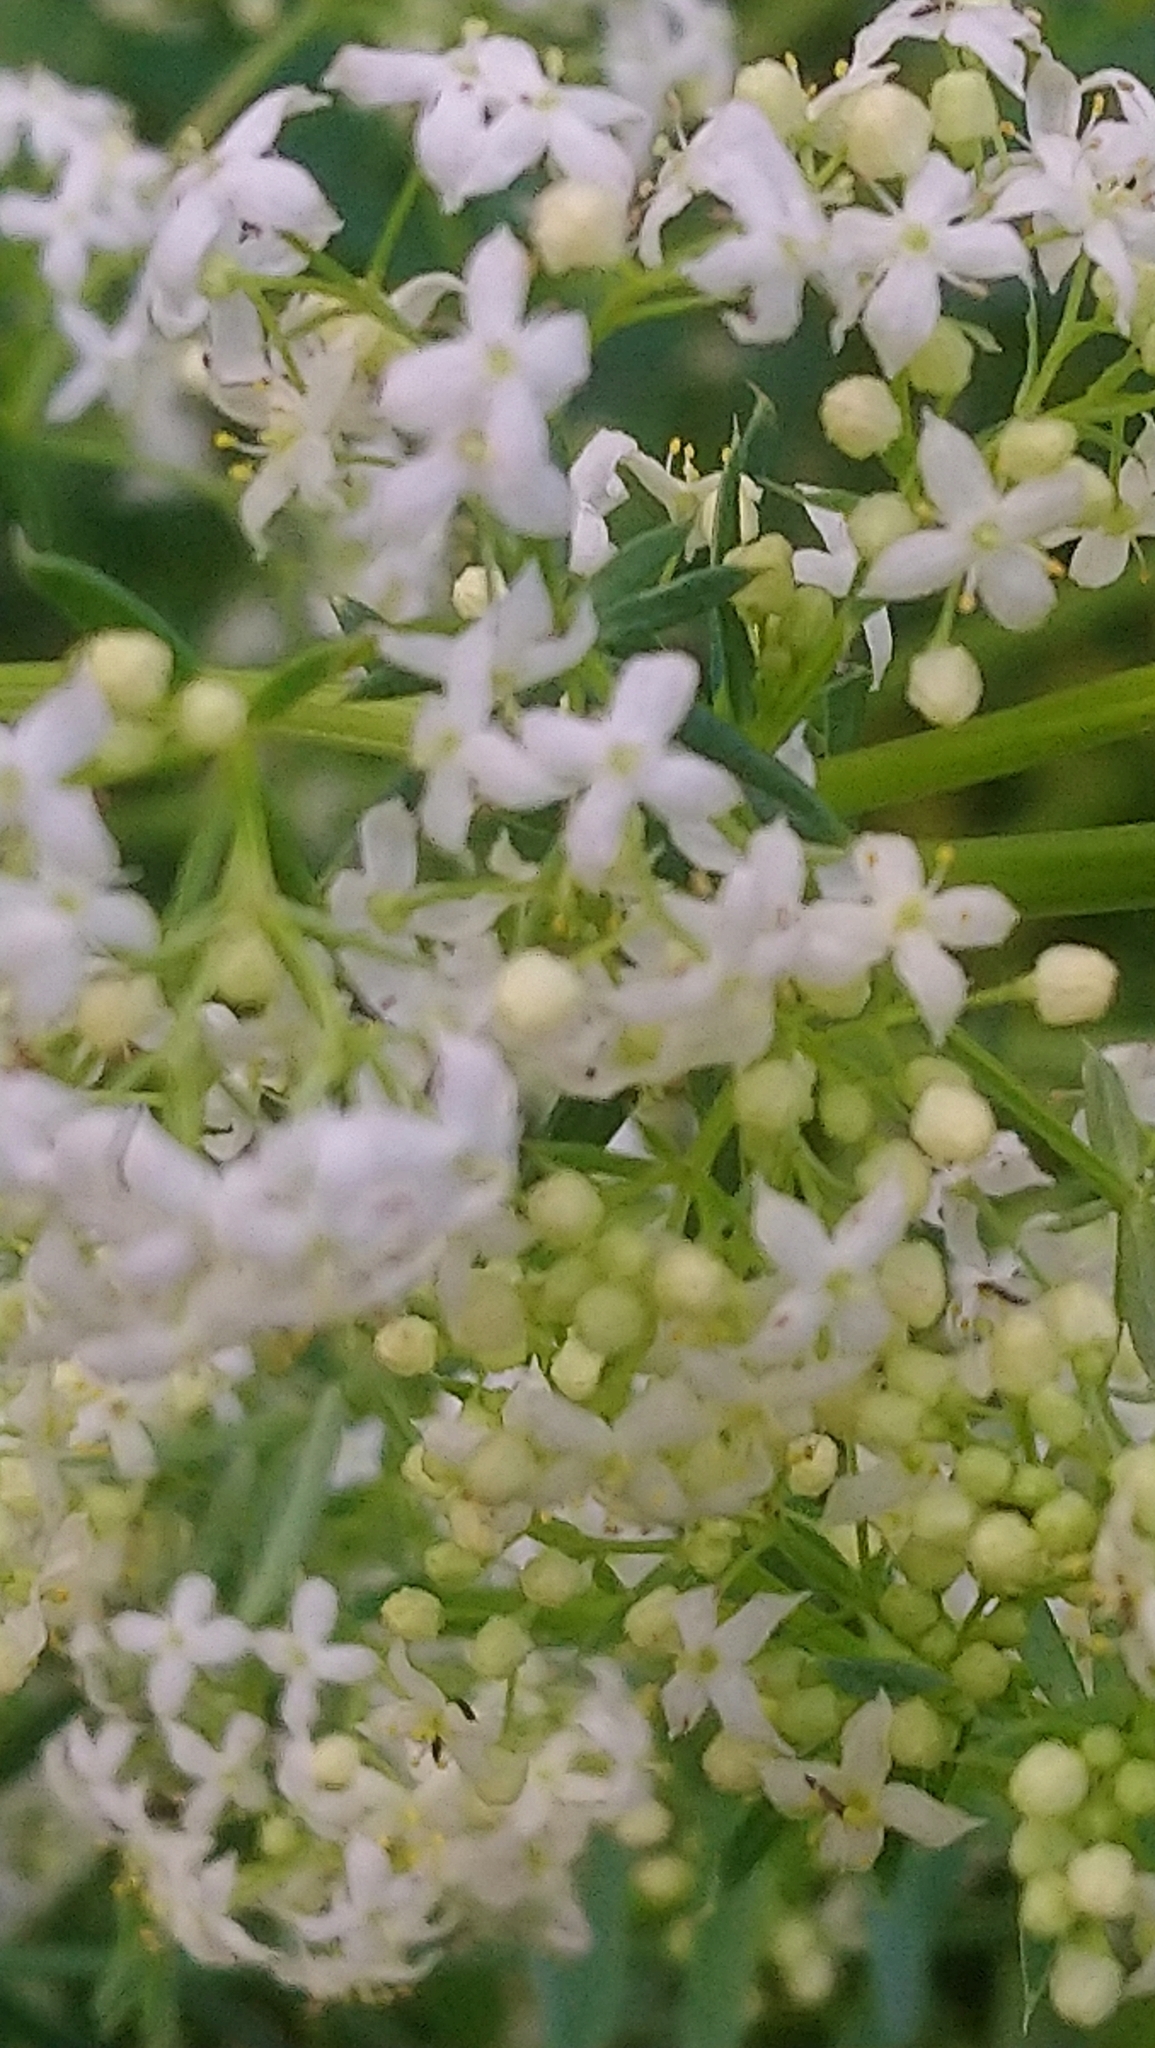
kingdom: Plantae
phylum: Tracheophyta
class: Magnoliopsida
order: Gentianales
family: Rubiaceae
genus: Galium
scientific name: Galium mollugo
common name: Hedge bedstraw
